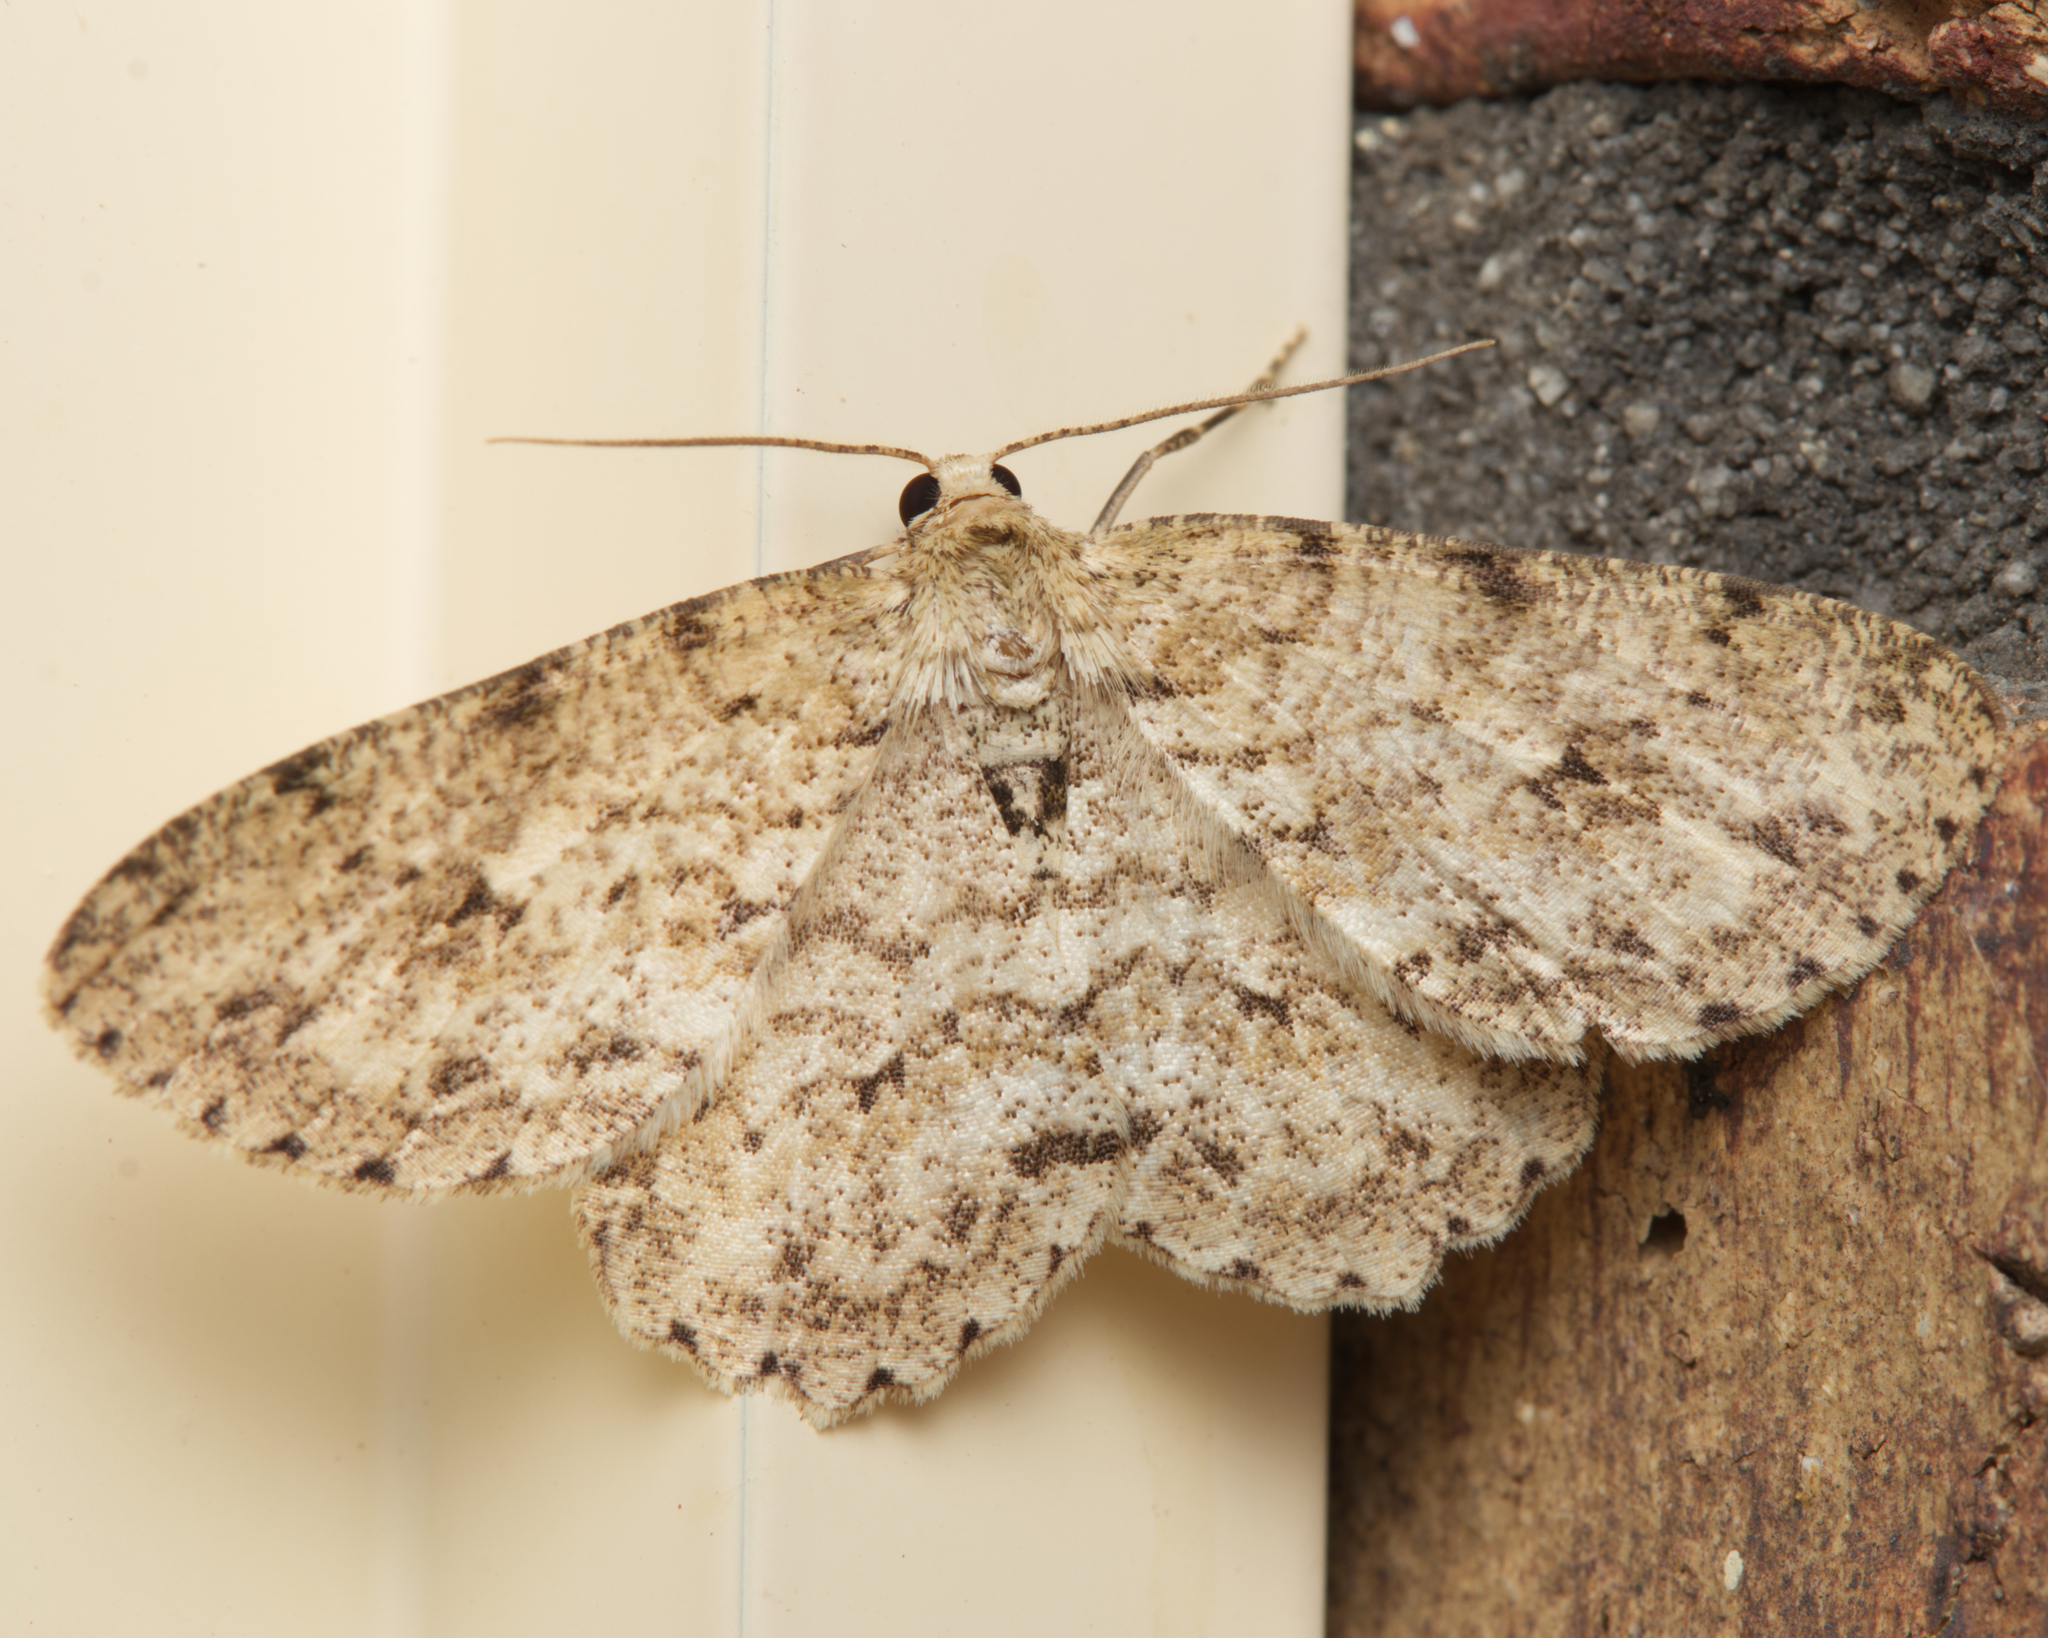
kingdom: Animalia
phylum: Arthropoda
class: Insecta
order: Lepidoptera
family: Geometridae
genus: Ectropis
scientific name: Ectropis bhurmitra
